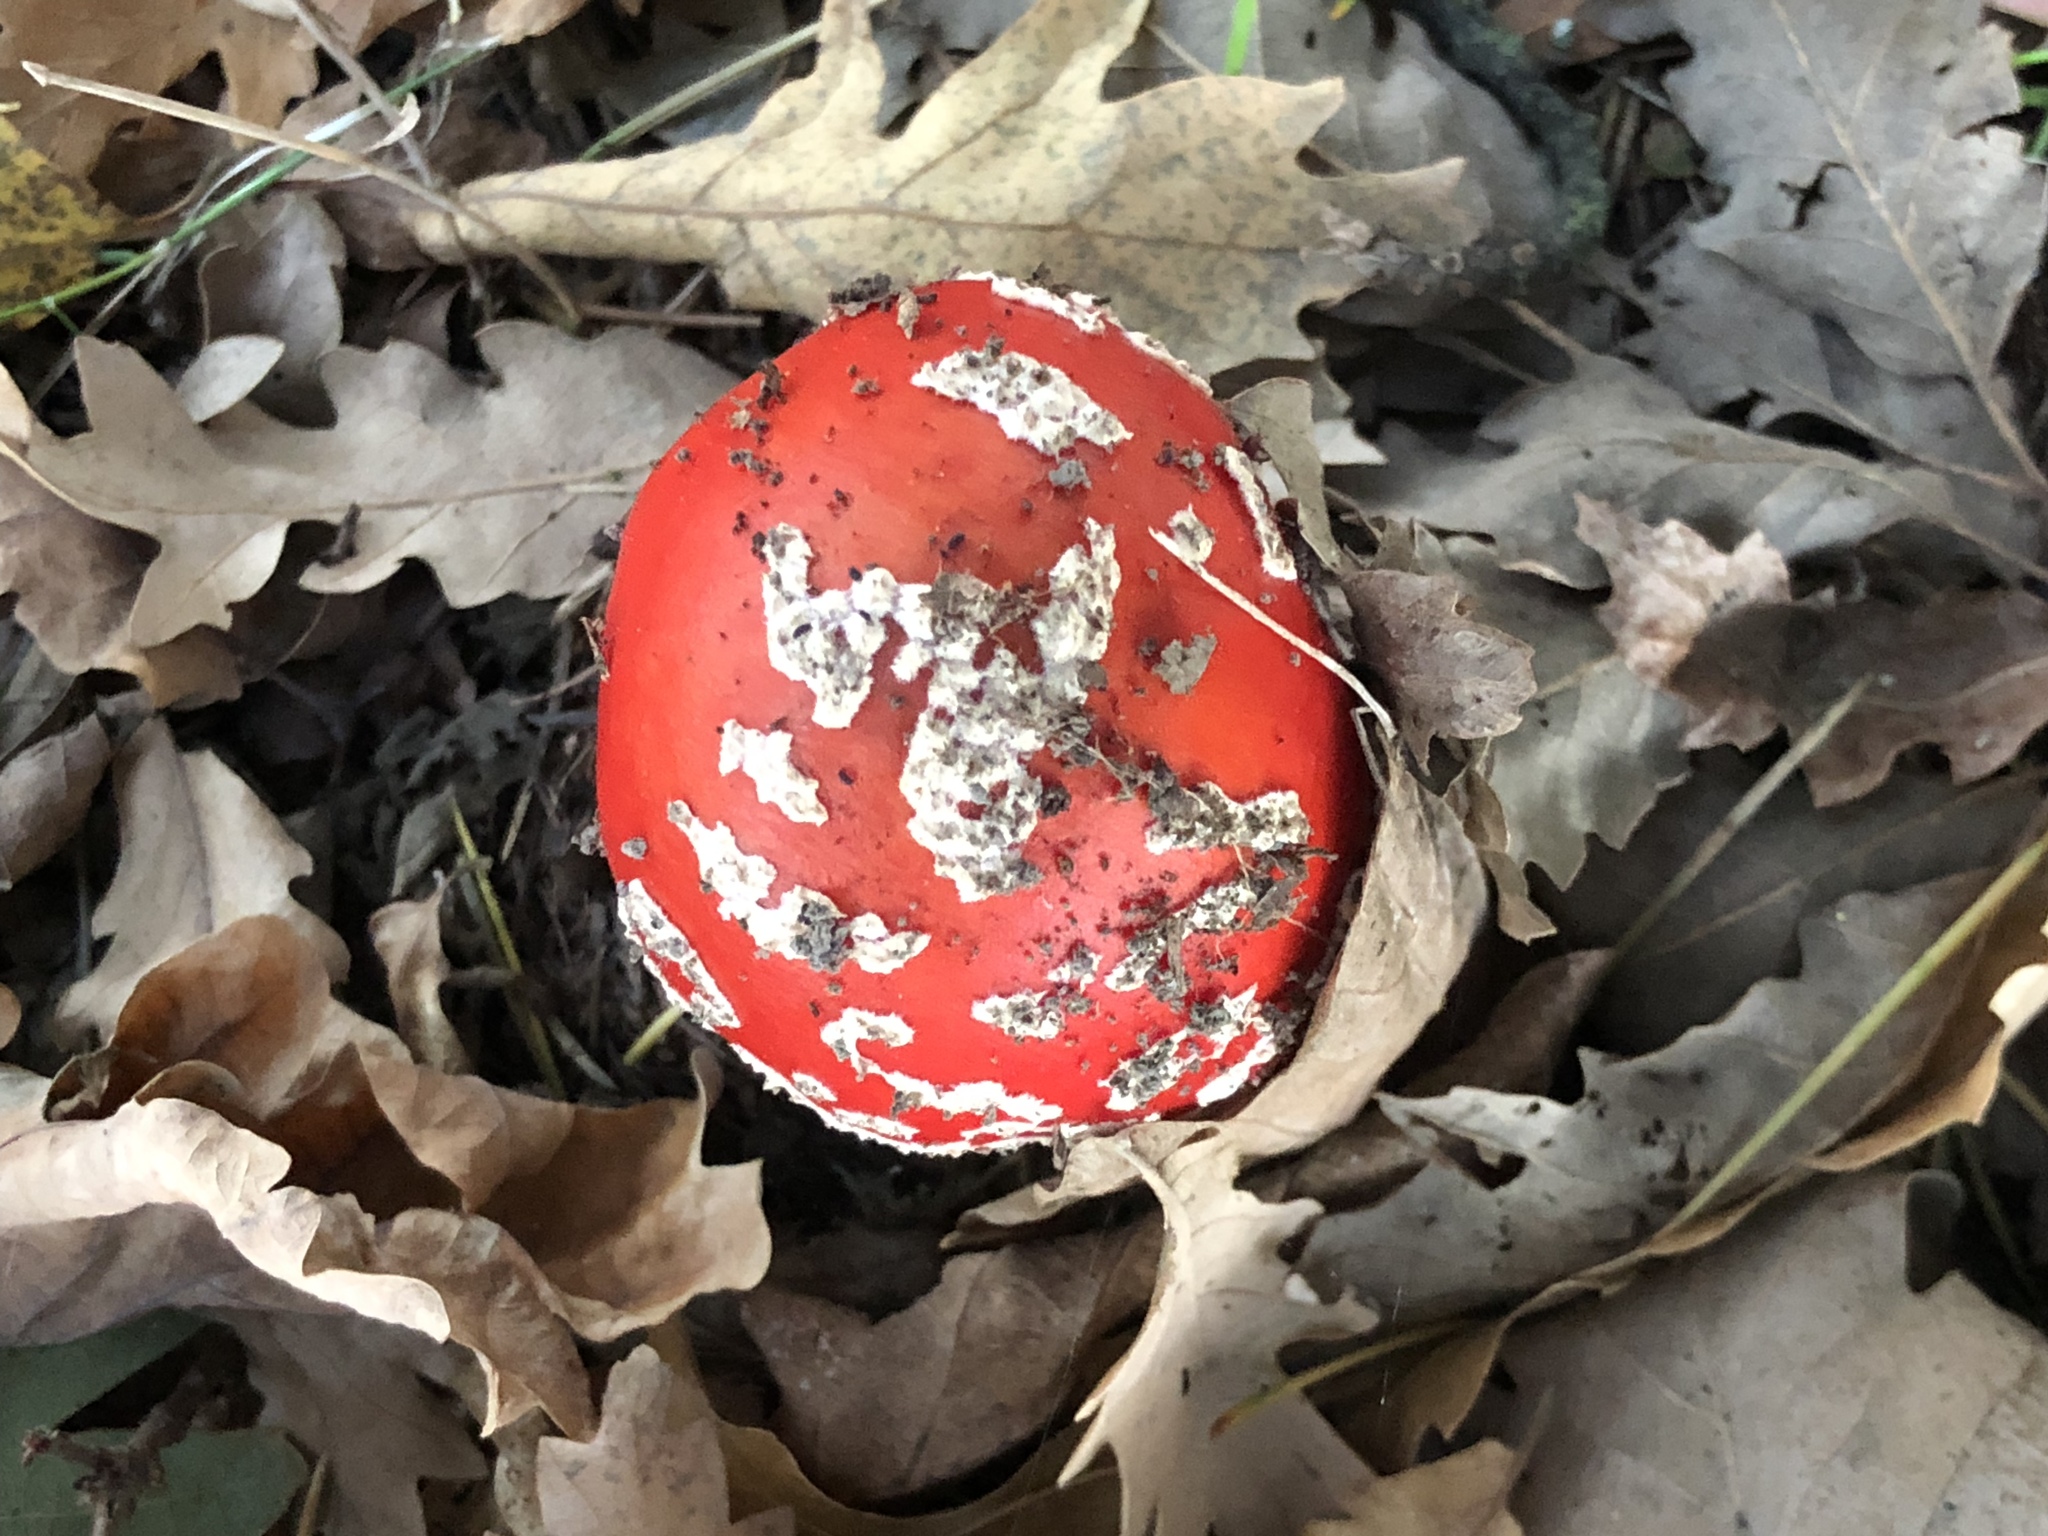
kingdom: Fungi
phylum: Basidiomycota
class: Agaricomycetes
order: Agaricales
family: Amanitaceae
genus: Amanita
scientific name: Amanita muscaria
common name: Fly agaric
